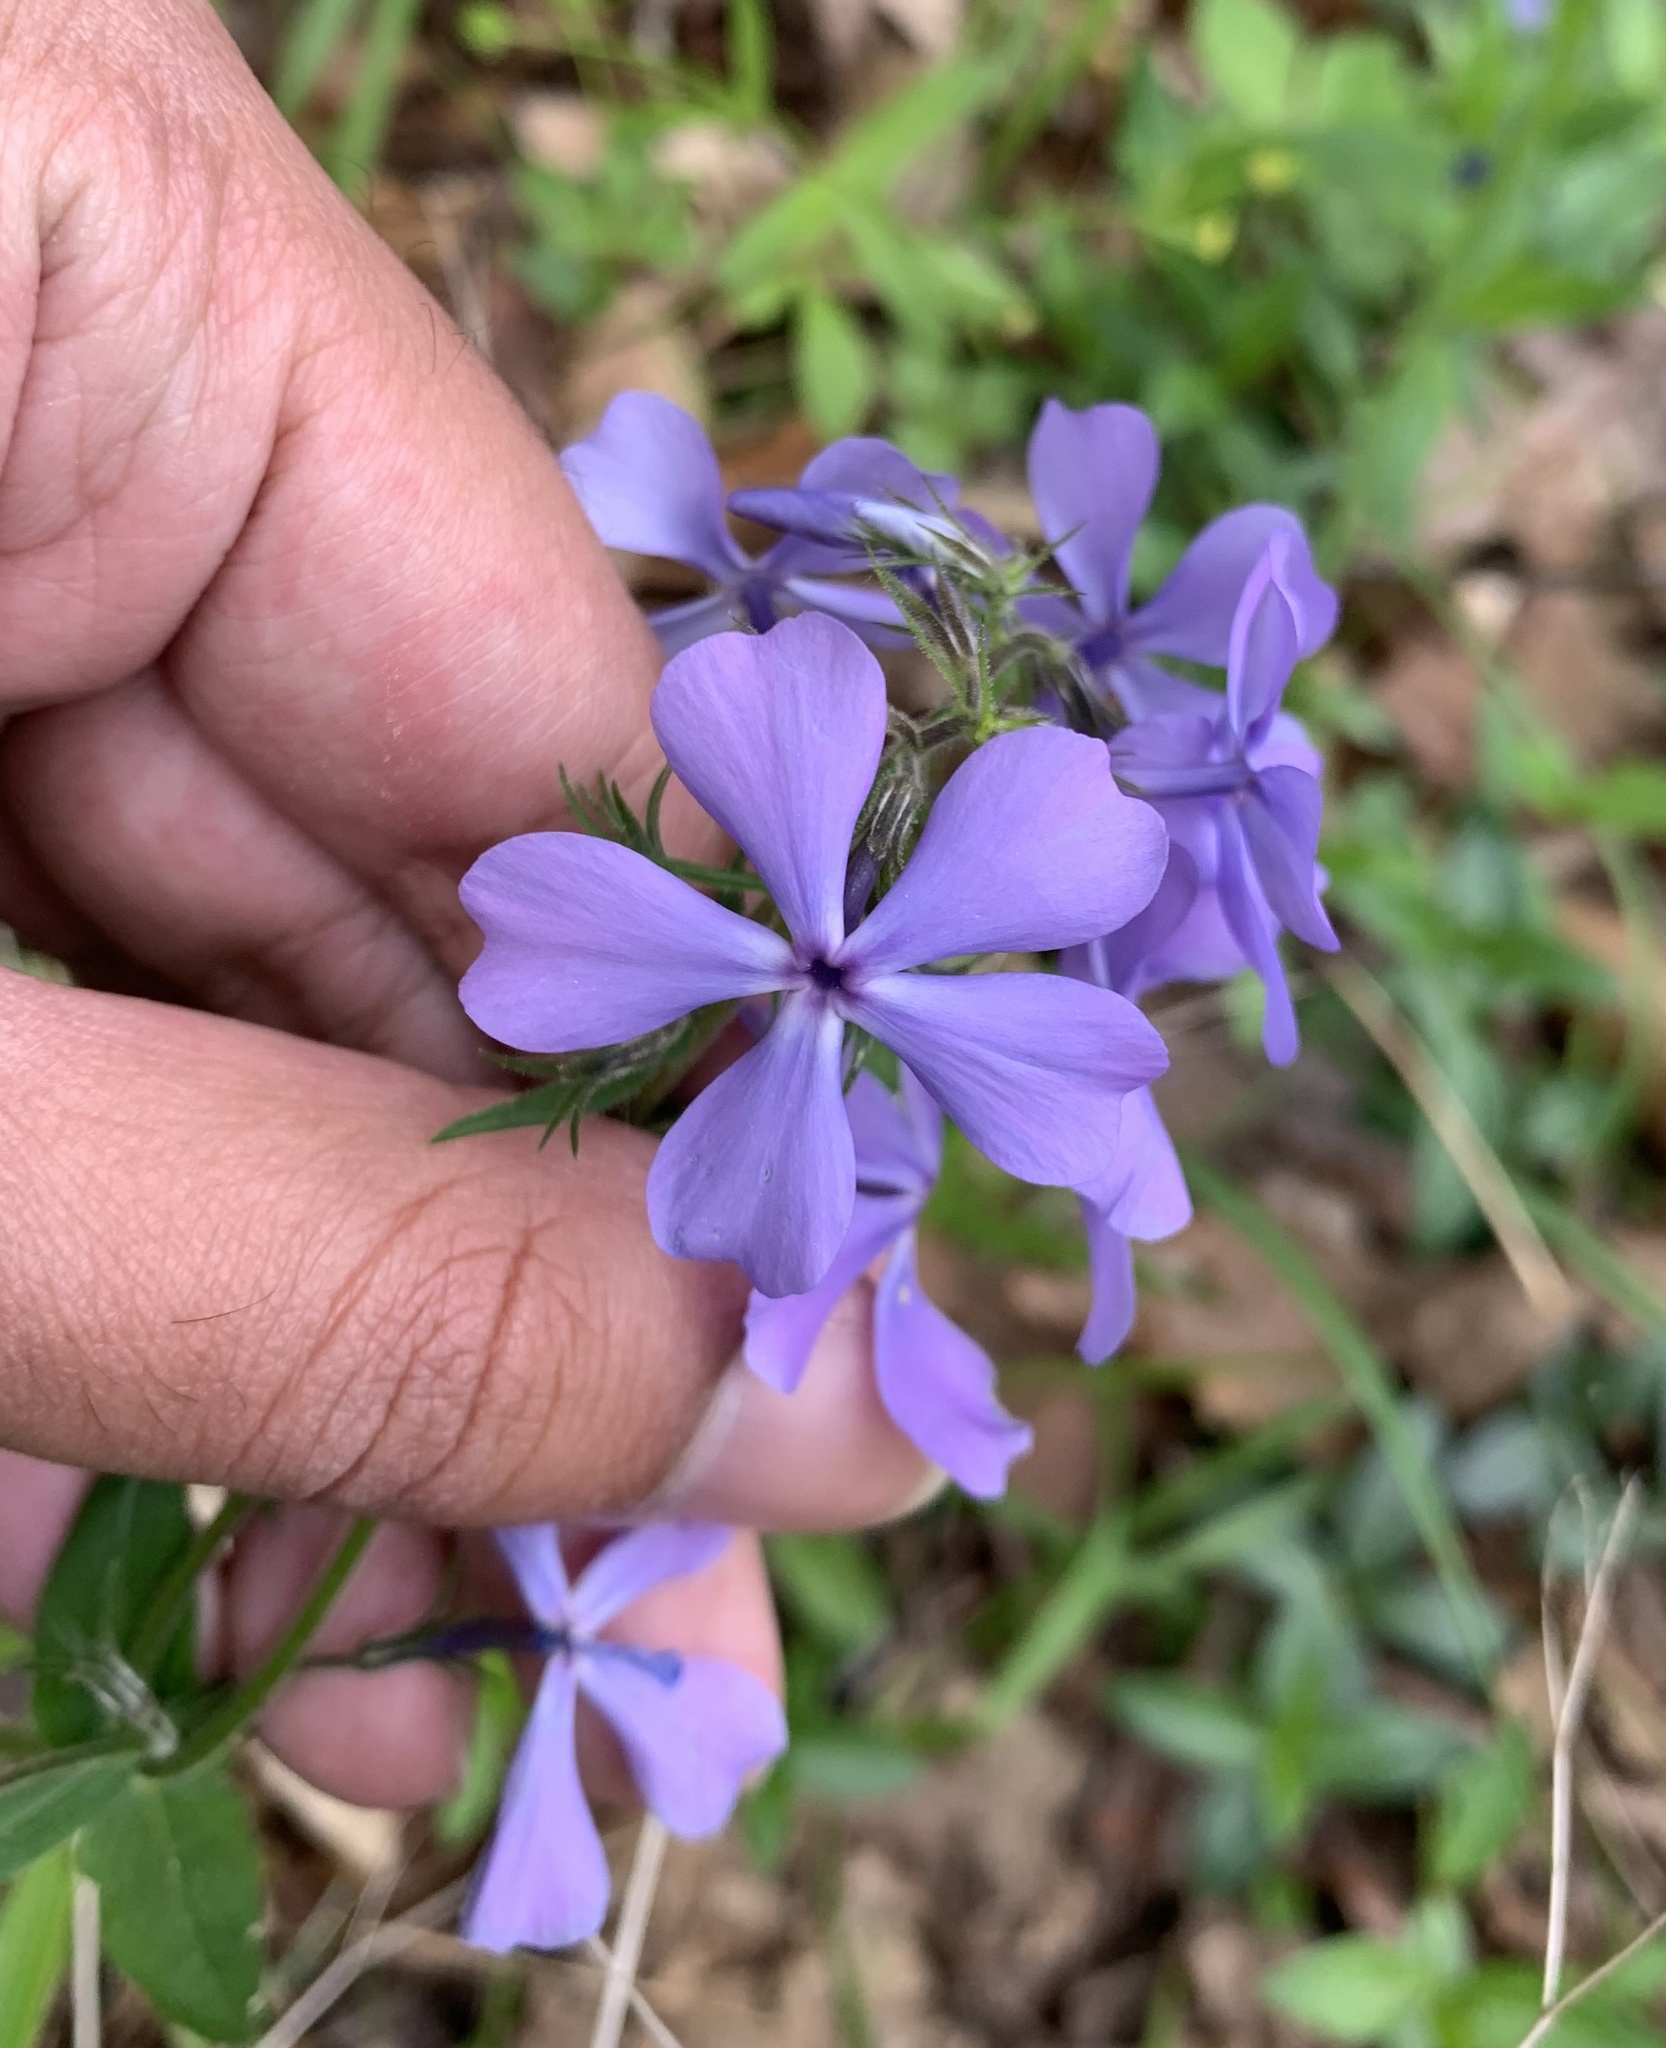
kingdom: Plantae
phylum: Tracheophyta
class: Magnoliopsida
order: Ericales
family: Polemoniaceae
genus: Phlox
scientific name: Phlox divaricata
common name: Blue phlox
